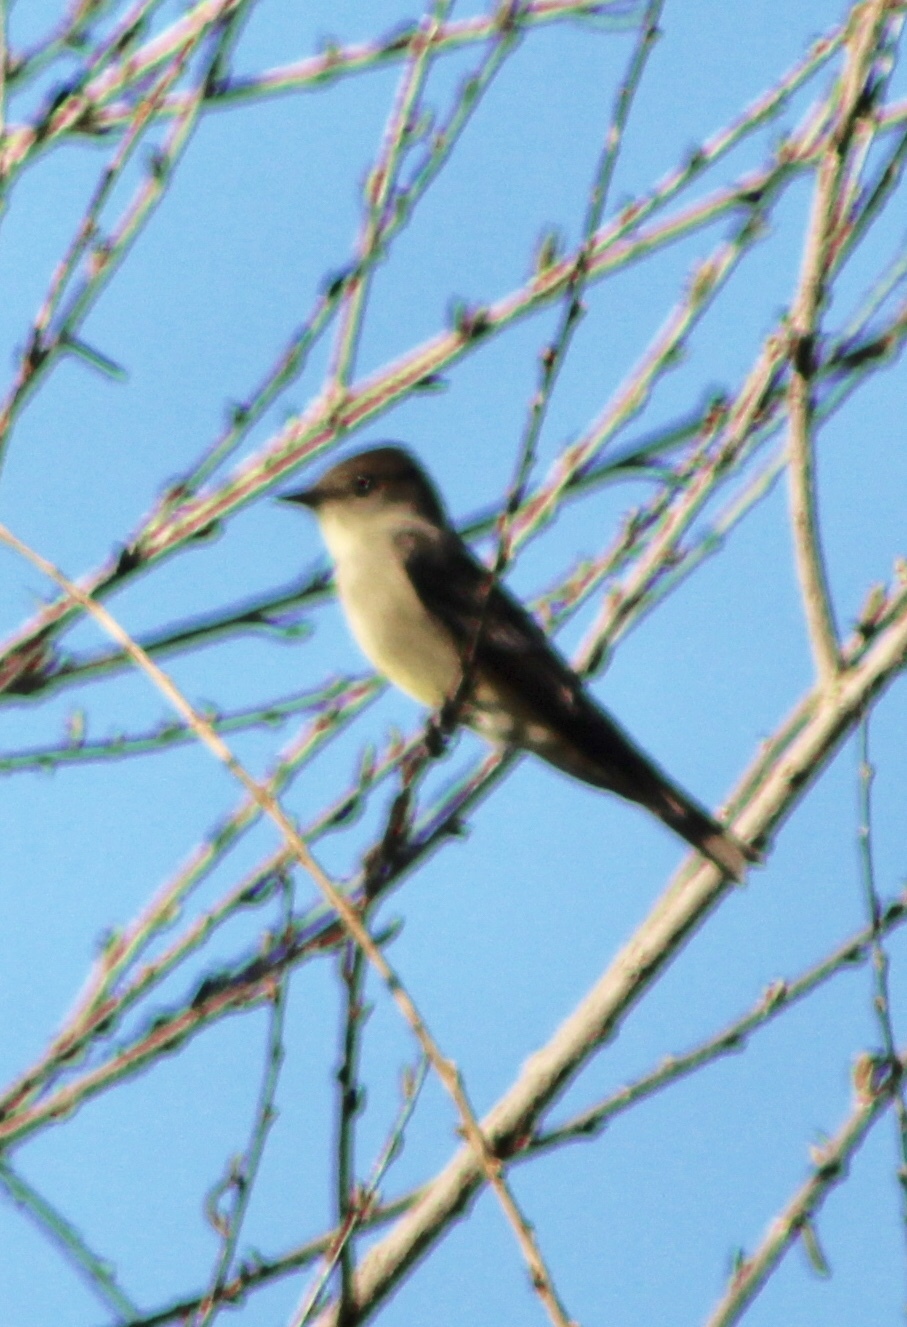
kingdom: Animalia
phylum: Chordata
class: Aves
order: Passeriformes
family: Tyrannidae
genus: Contopus
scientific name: Contopus sordidulus
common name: Western wood-pewee
